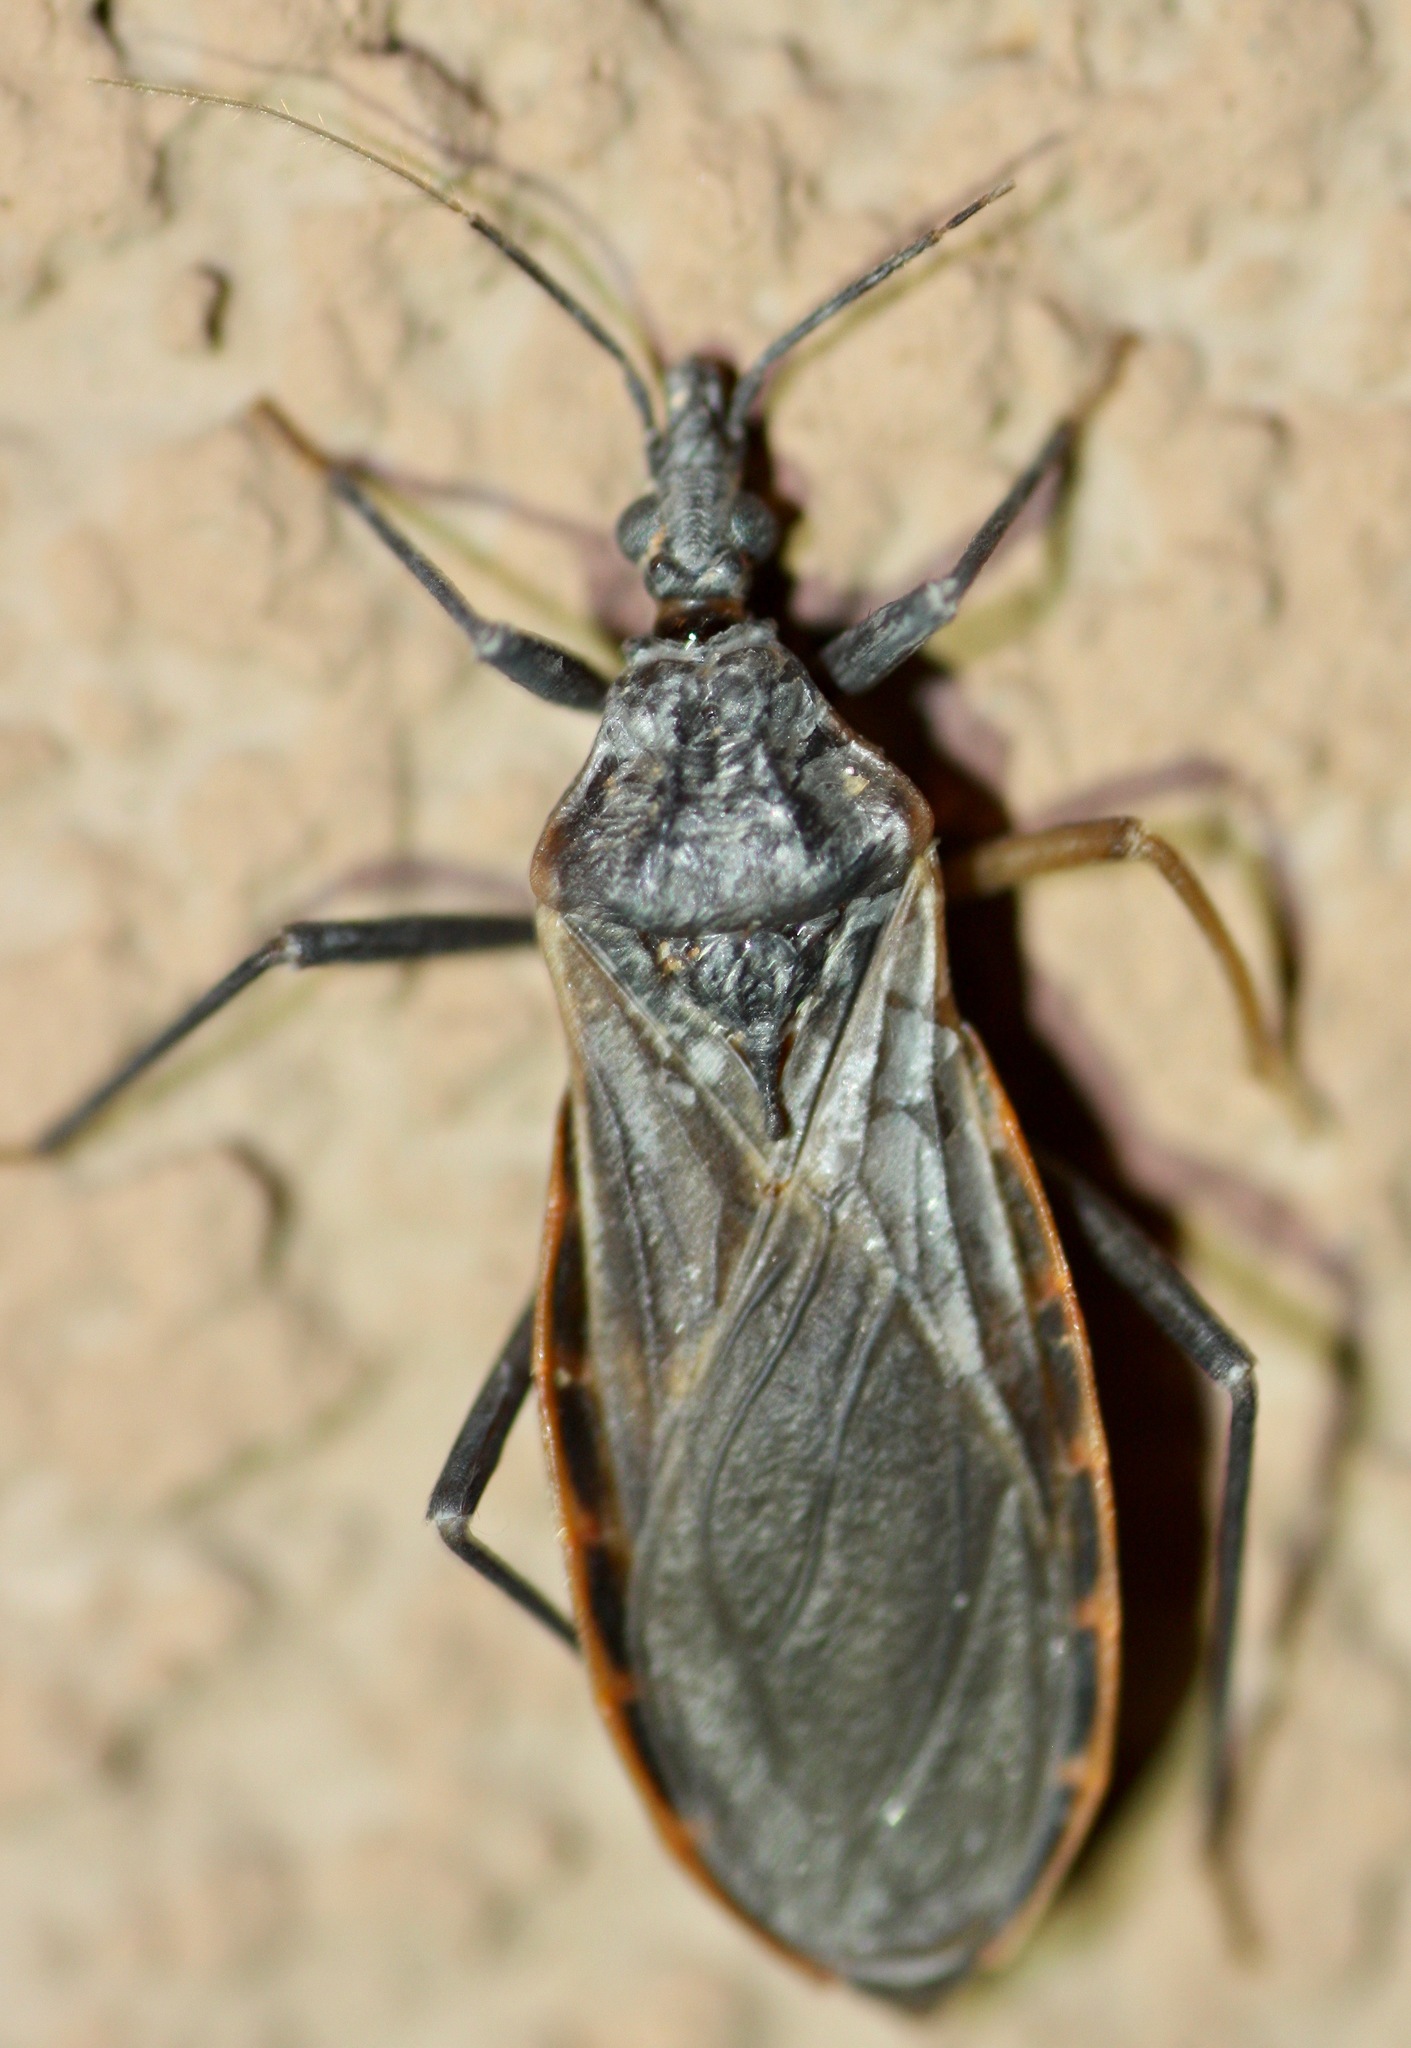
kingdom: Animalia
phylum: Arthropoda
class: Insecta
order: Hemiptera
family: Reduviidae
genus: Triatoma
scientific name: Triatoma rubida
